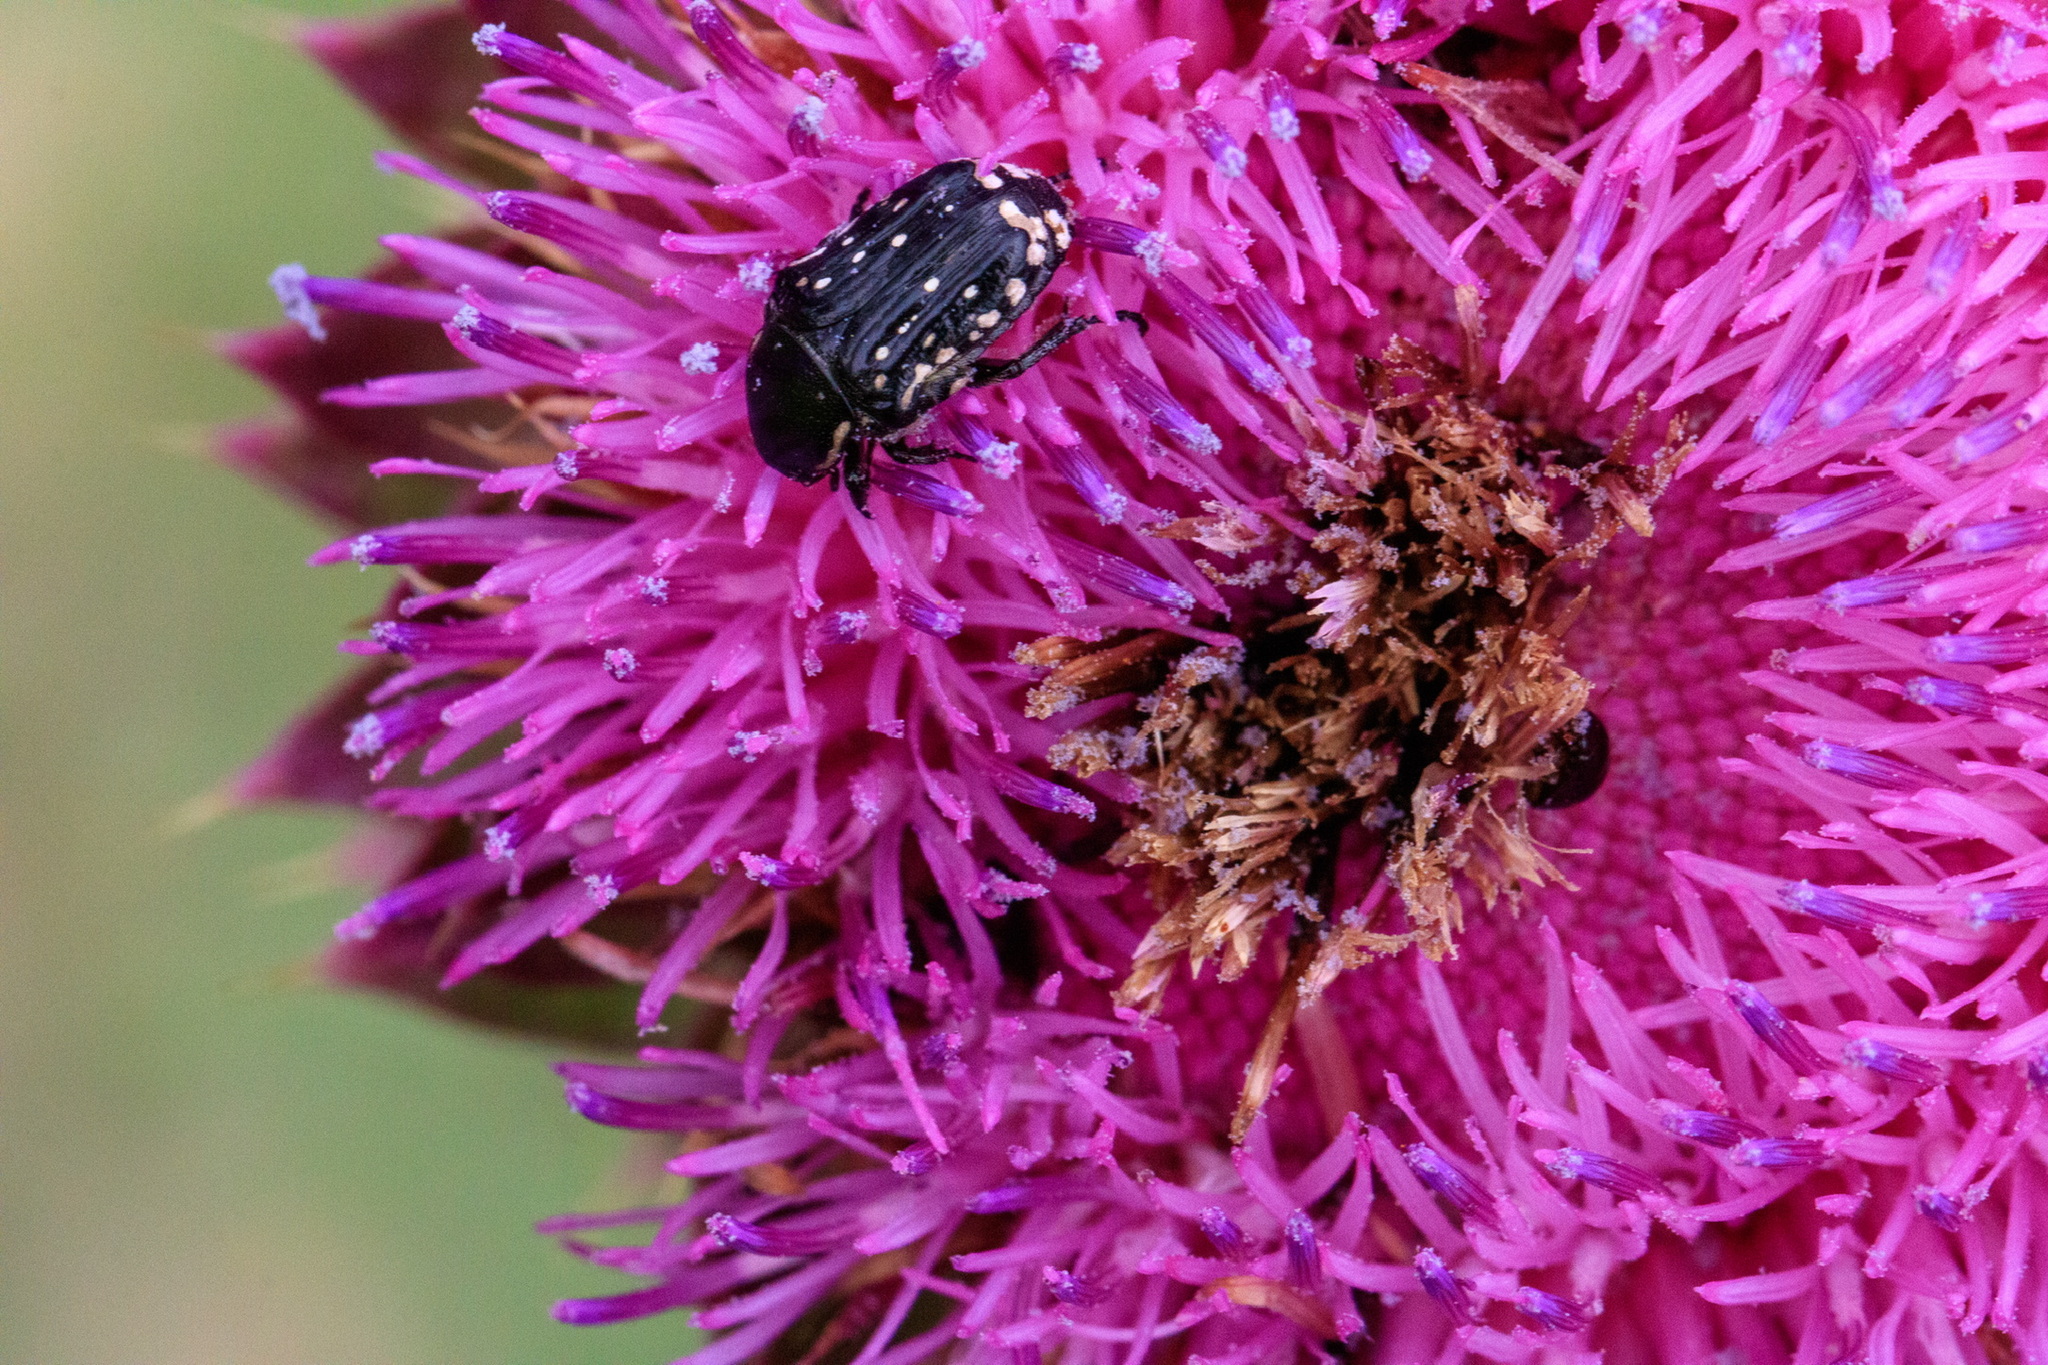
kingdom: Animalia
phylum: Arthropoda
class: Insecta
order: Coleoptera
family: Scarabaeidae
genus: Oxythyrea
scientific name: Oxythyrea cinctella
